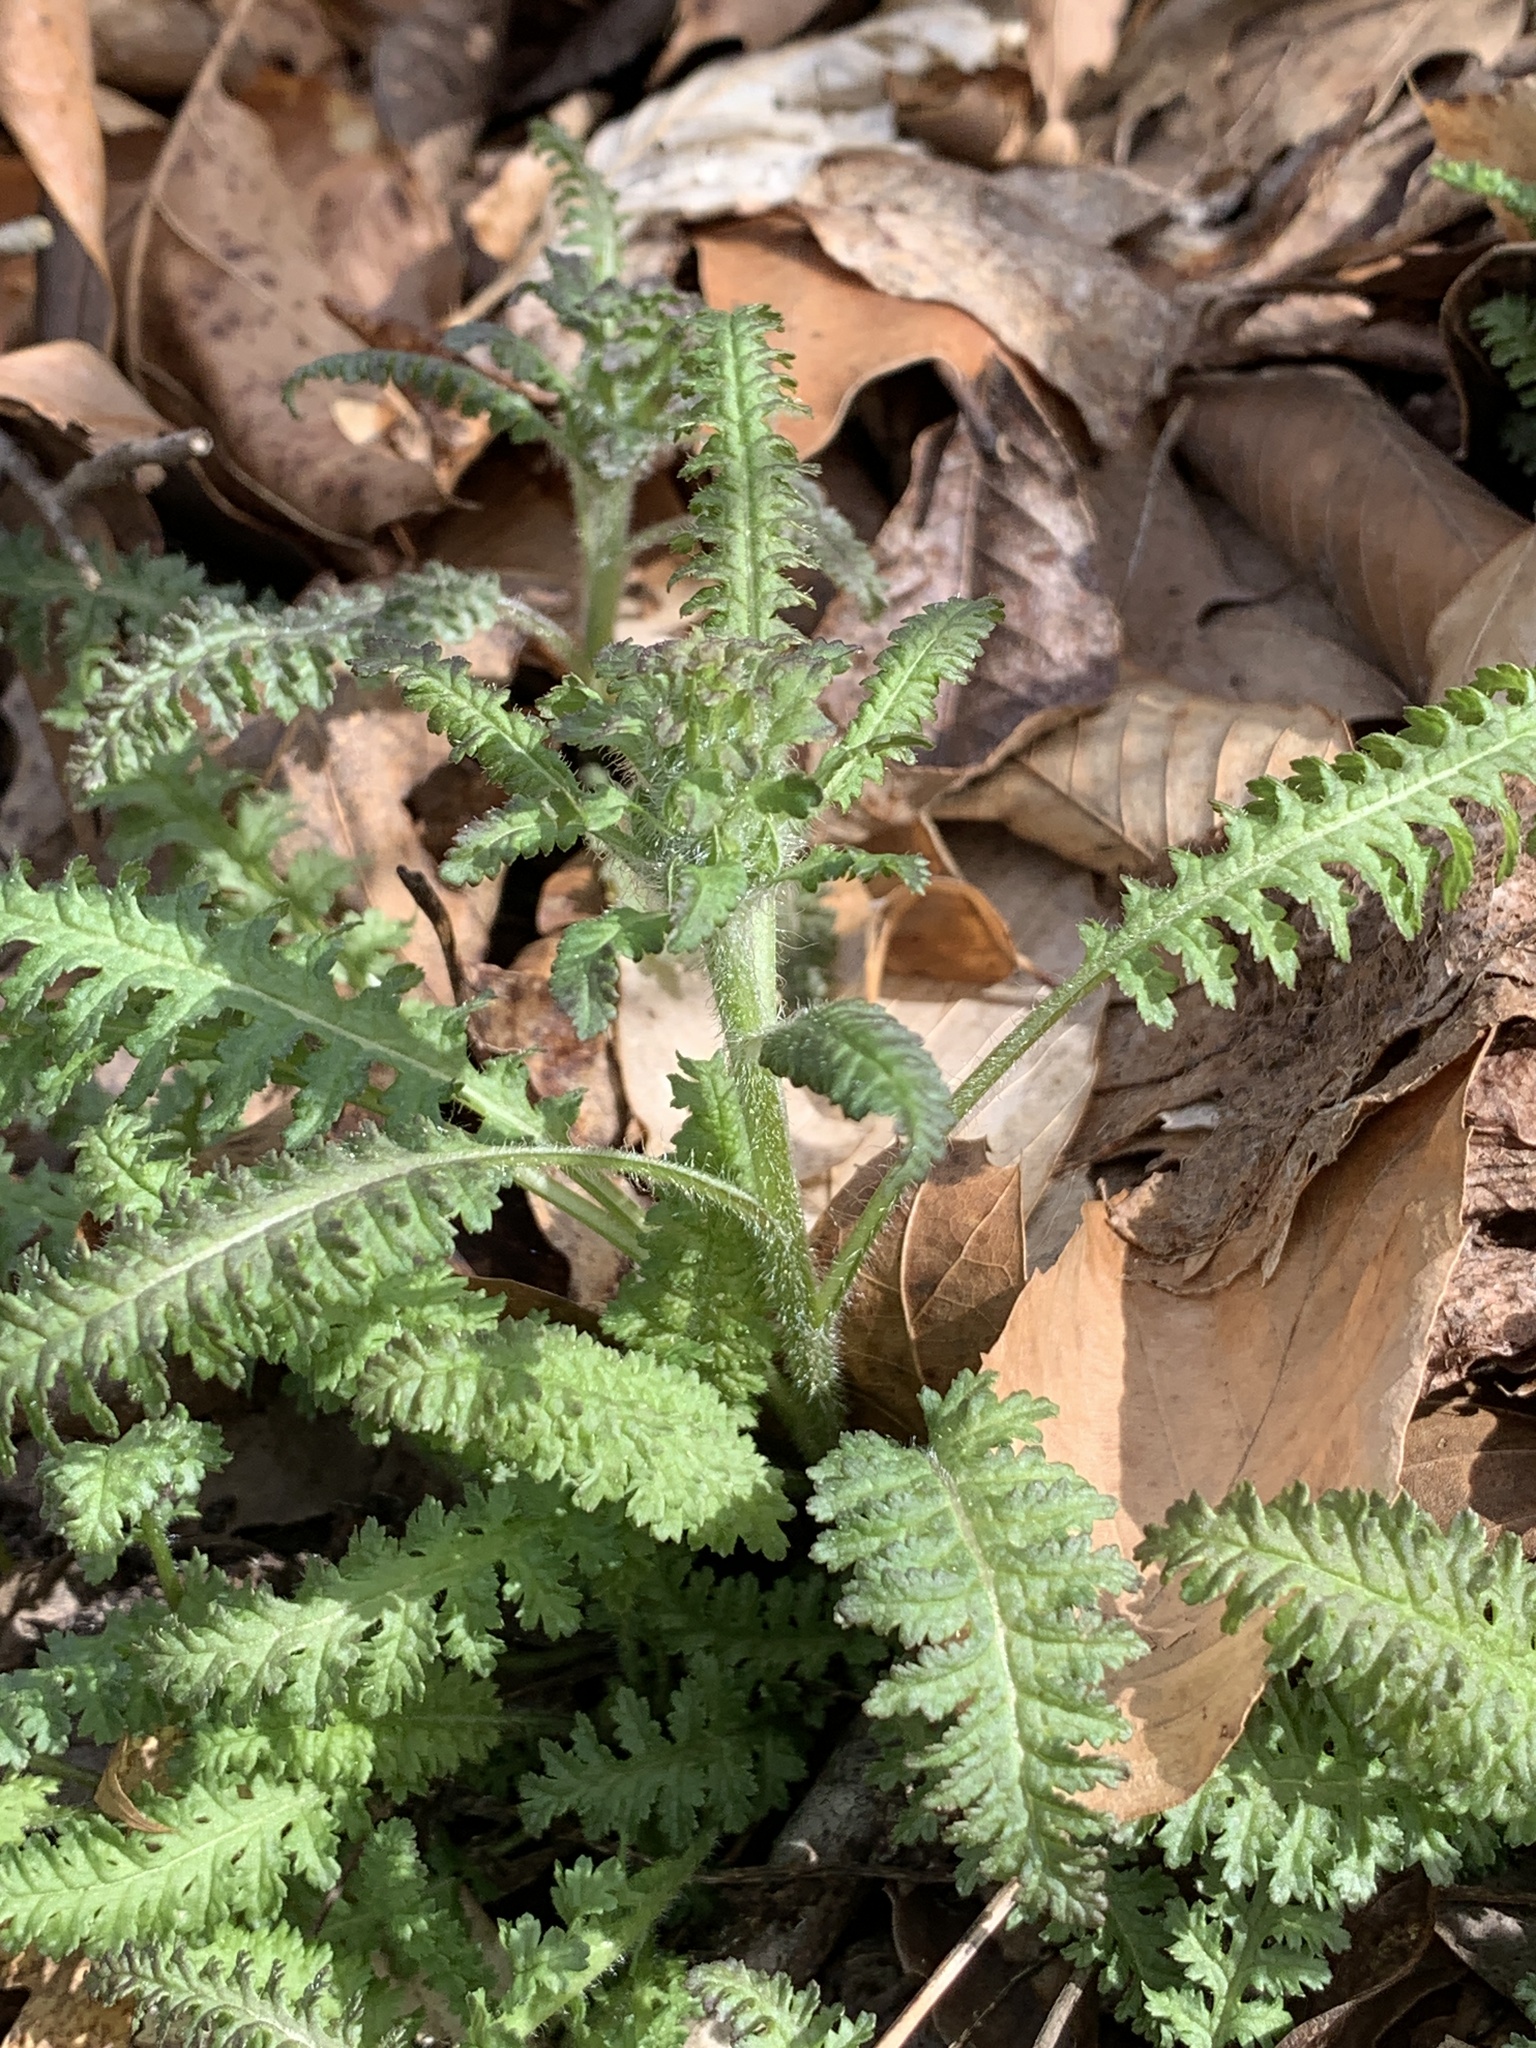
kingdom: Plantae
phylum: Tracheophyta
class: Magnoliopsida
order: Lamiales
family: Orobanchaceae
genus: Pedicularis
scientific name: Pedicularis canadensis
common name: Early lousewort
